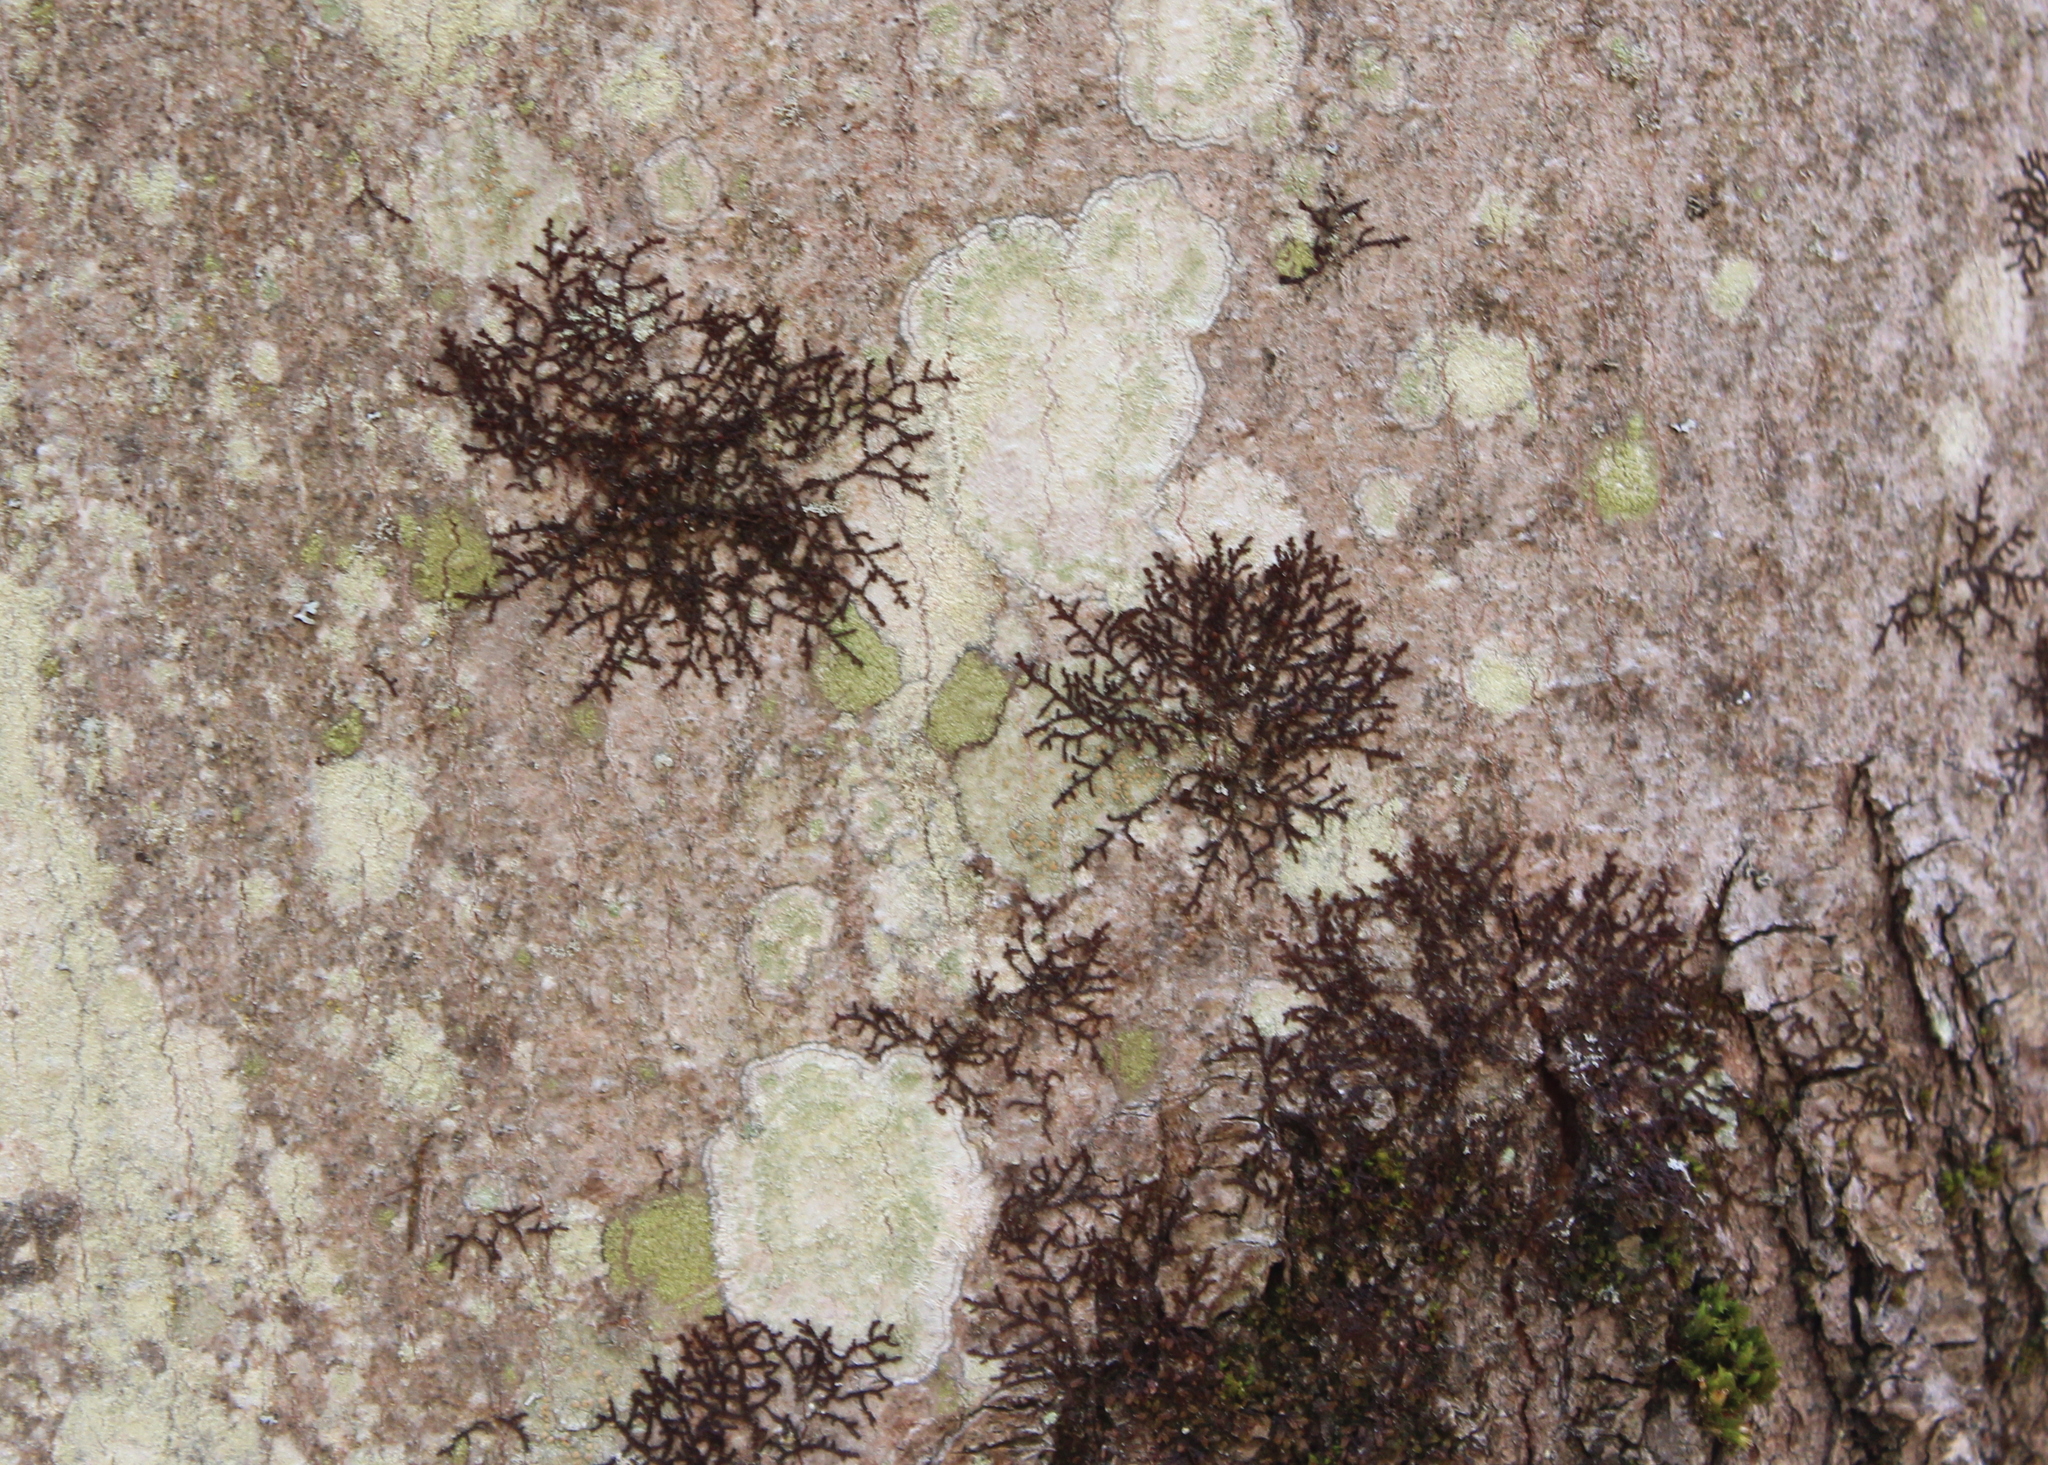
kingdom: Plantae
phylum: Marchantiophyta
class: Jungermanniopsida
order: Porellales
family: Frullaniaceae
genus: Frullania
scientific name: Frullania eboracensis
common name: New york scalewort
